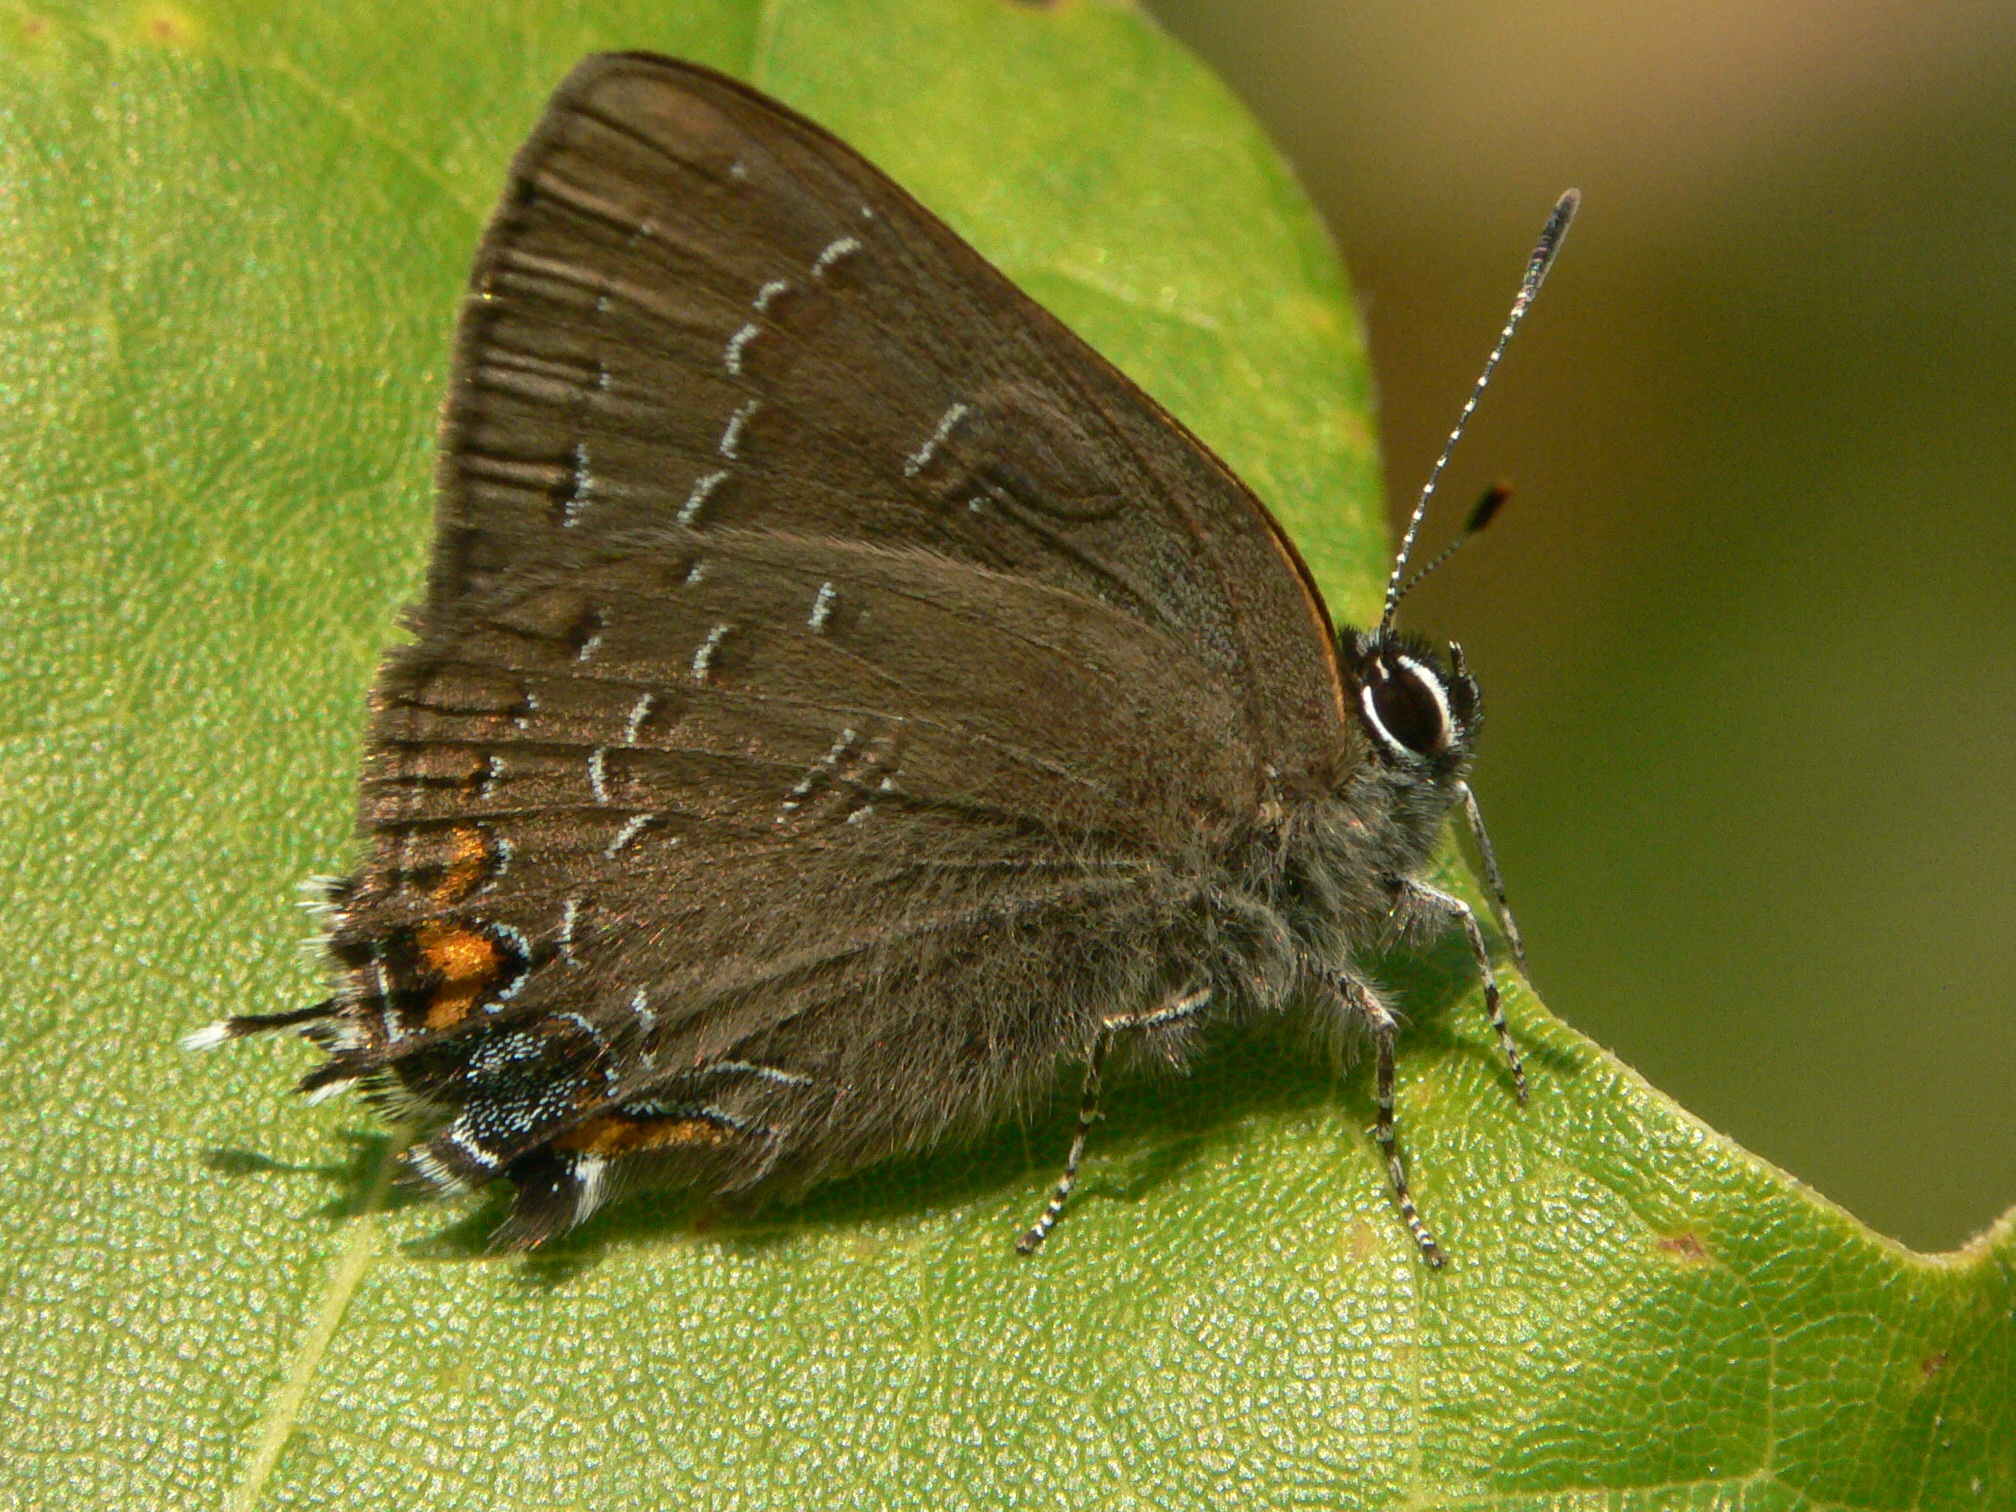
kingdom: Animalia
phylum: Arthropoda
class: Insecta
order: Lepidoptera
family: Lycaenidae
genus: Satyrium
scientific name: Satyrium calanus
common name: Banded hairstreak
